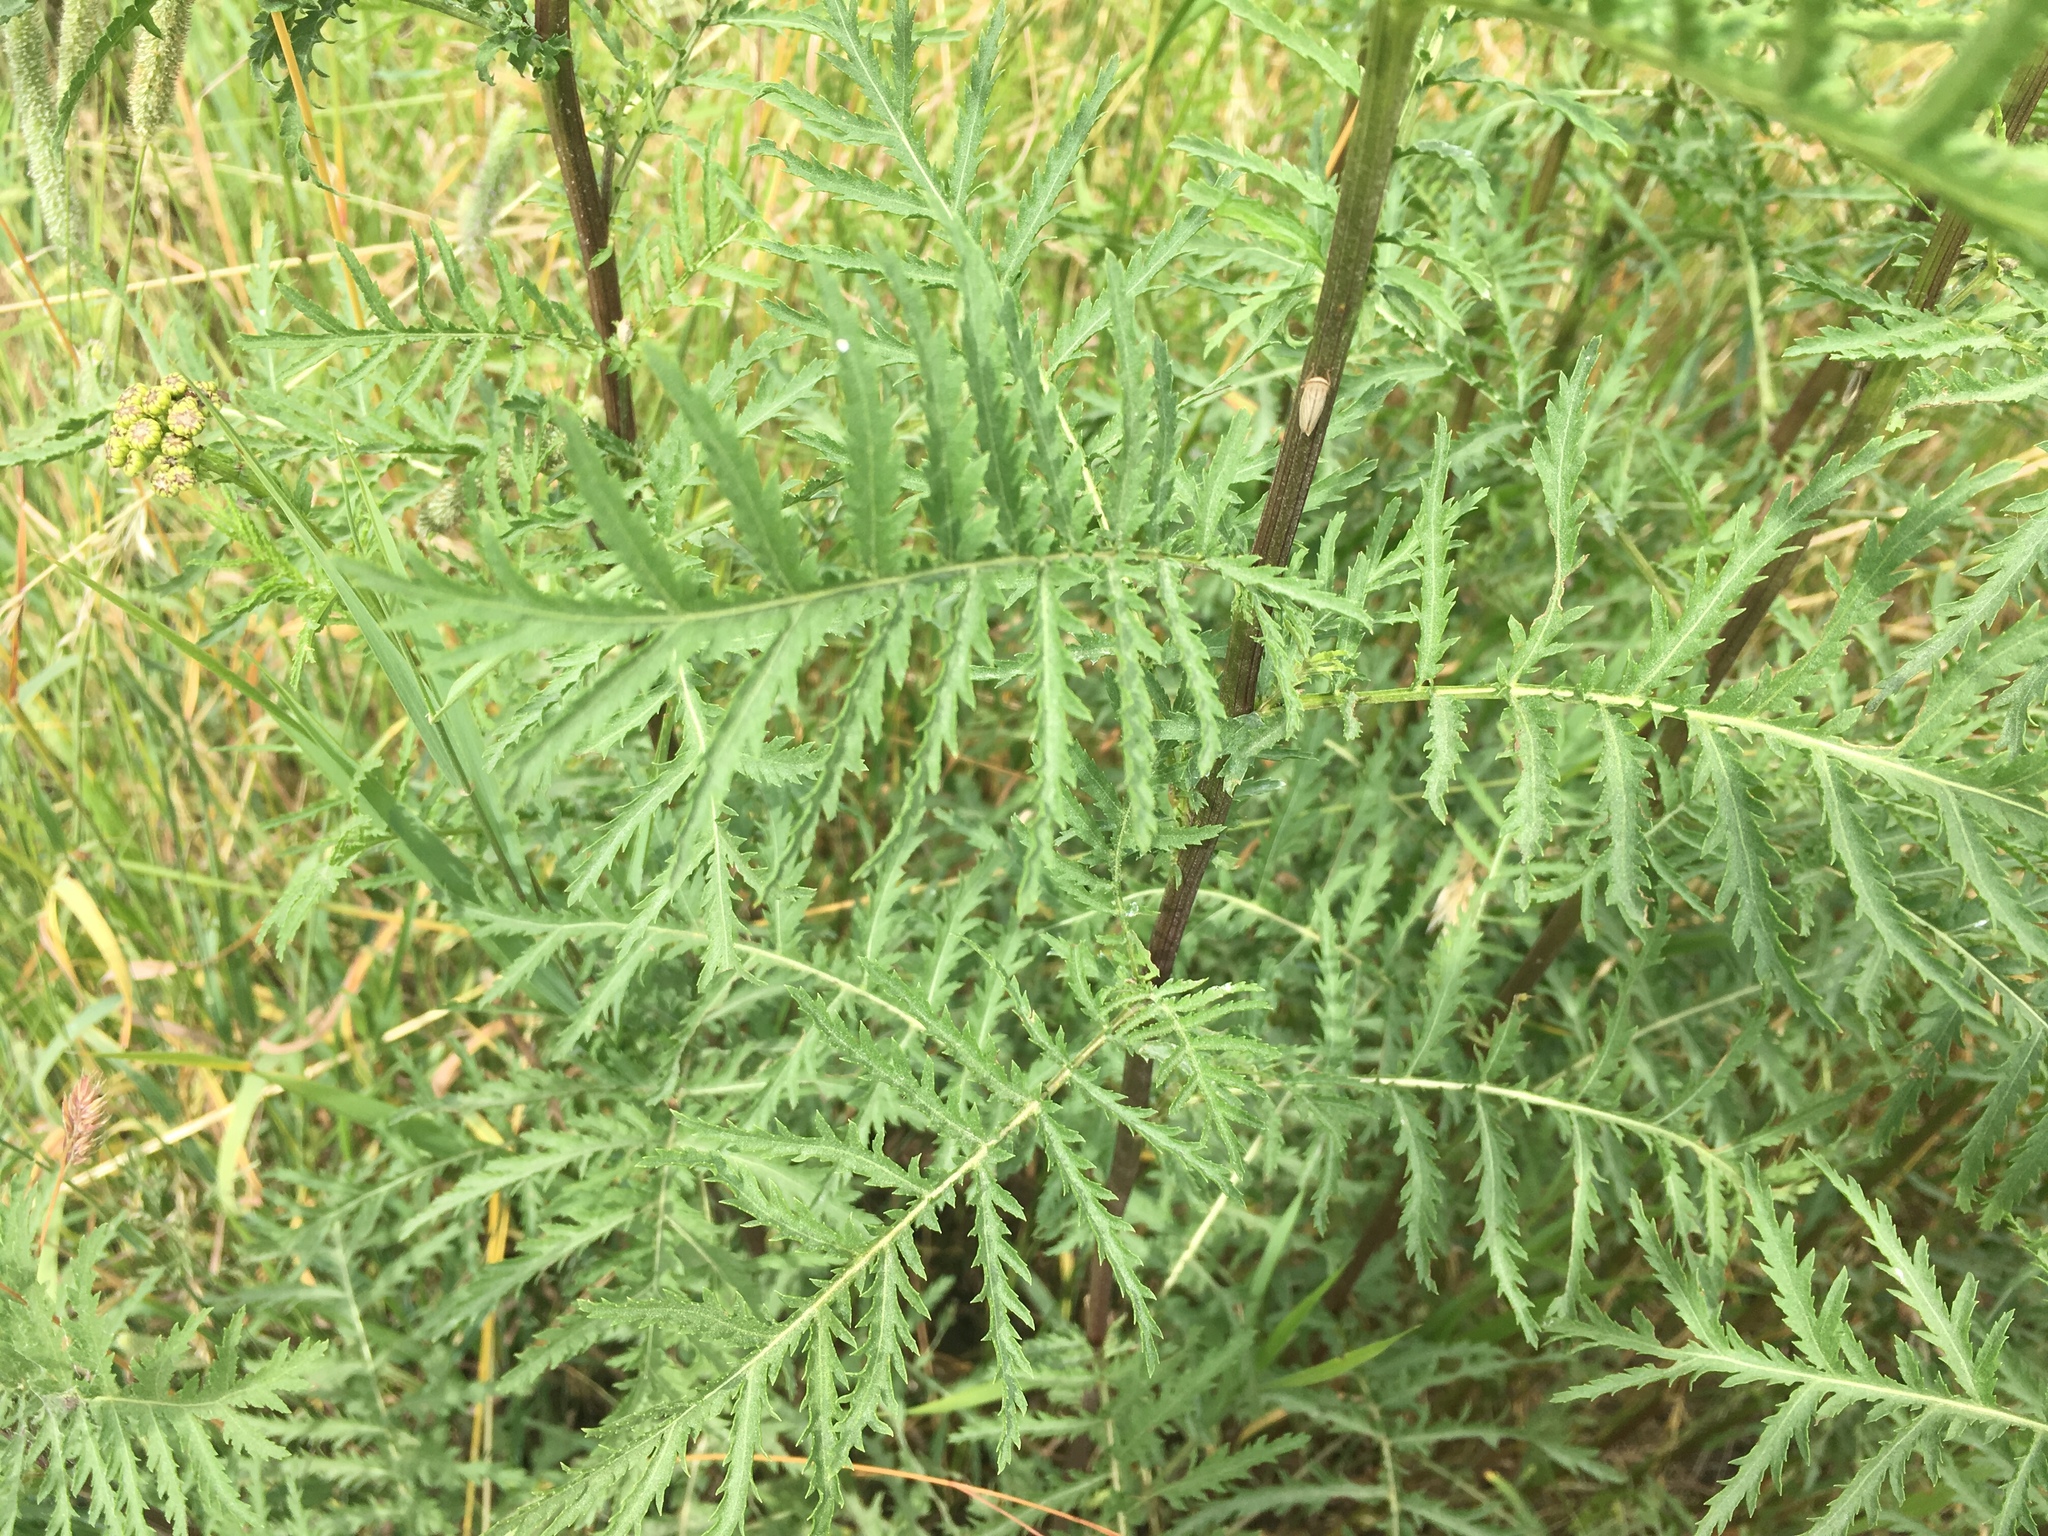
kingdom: Plantae
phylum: Tracheophyta
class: Magnoliopsida
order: Asterales
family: Asteraceae
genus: Tanacetum
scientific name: Tanacetum vulgare
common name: Common tansy
